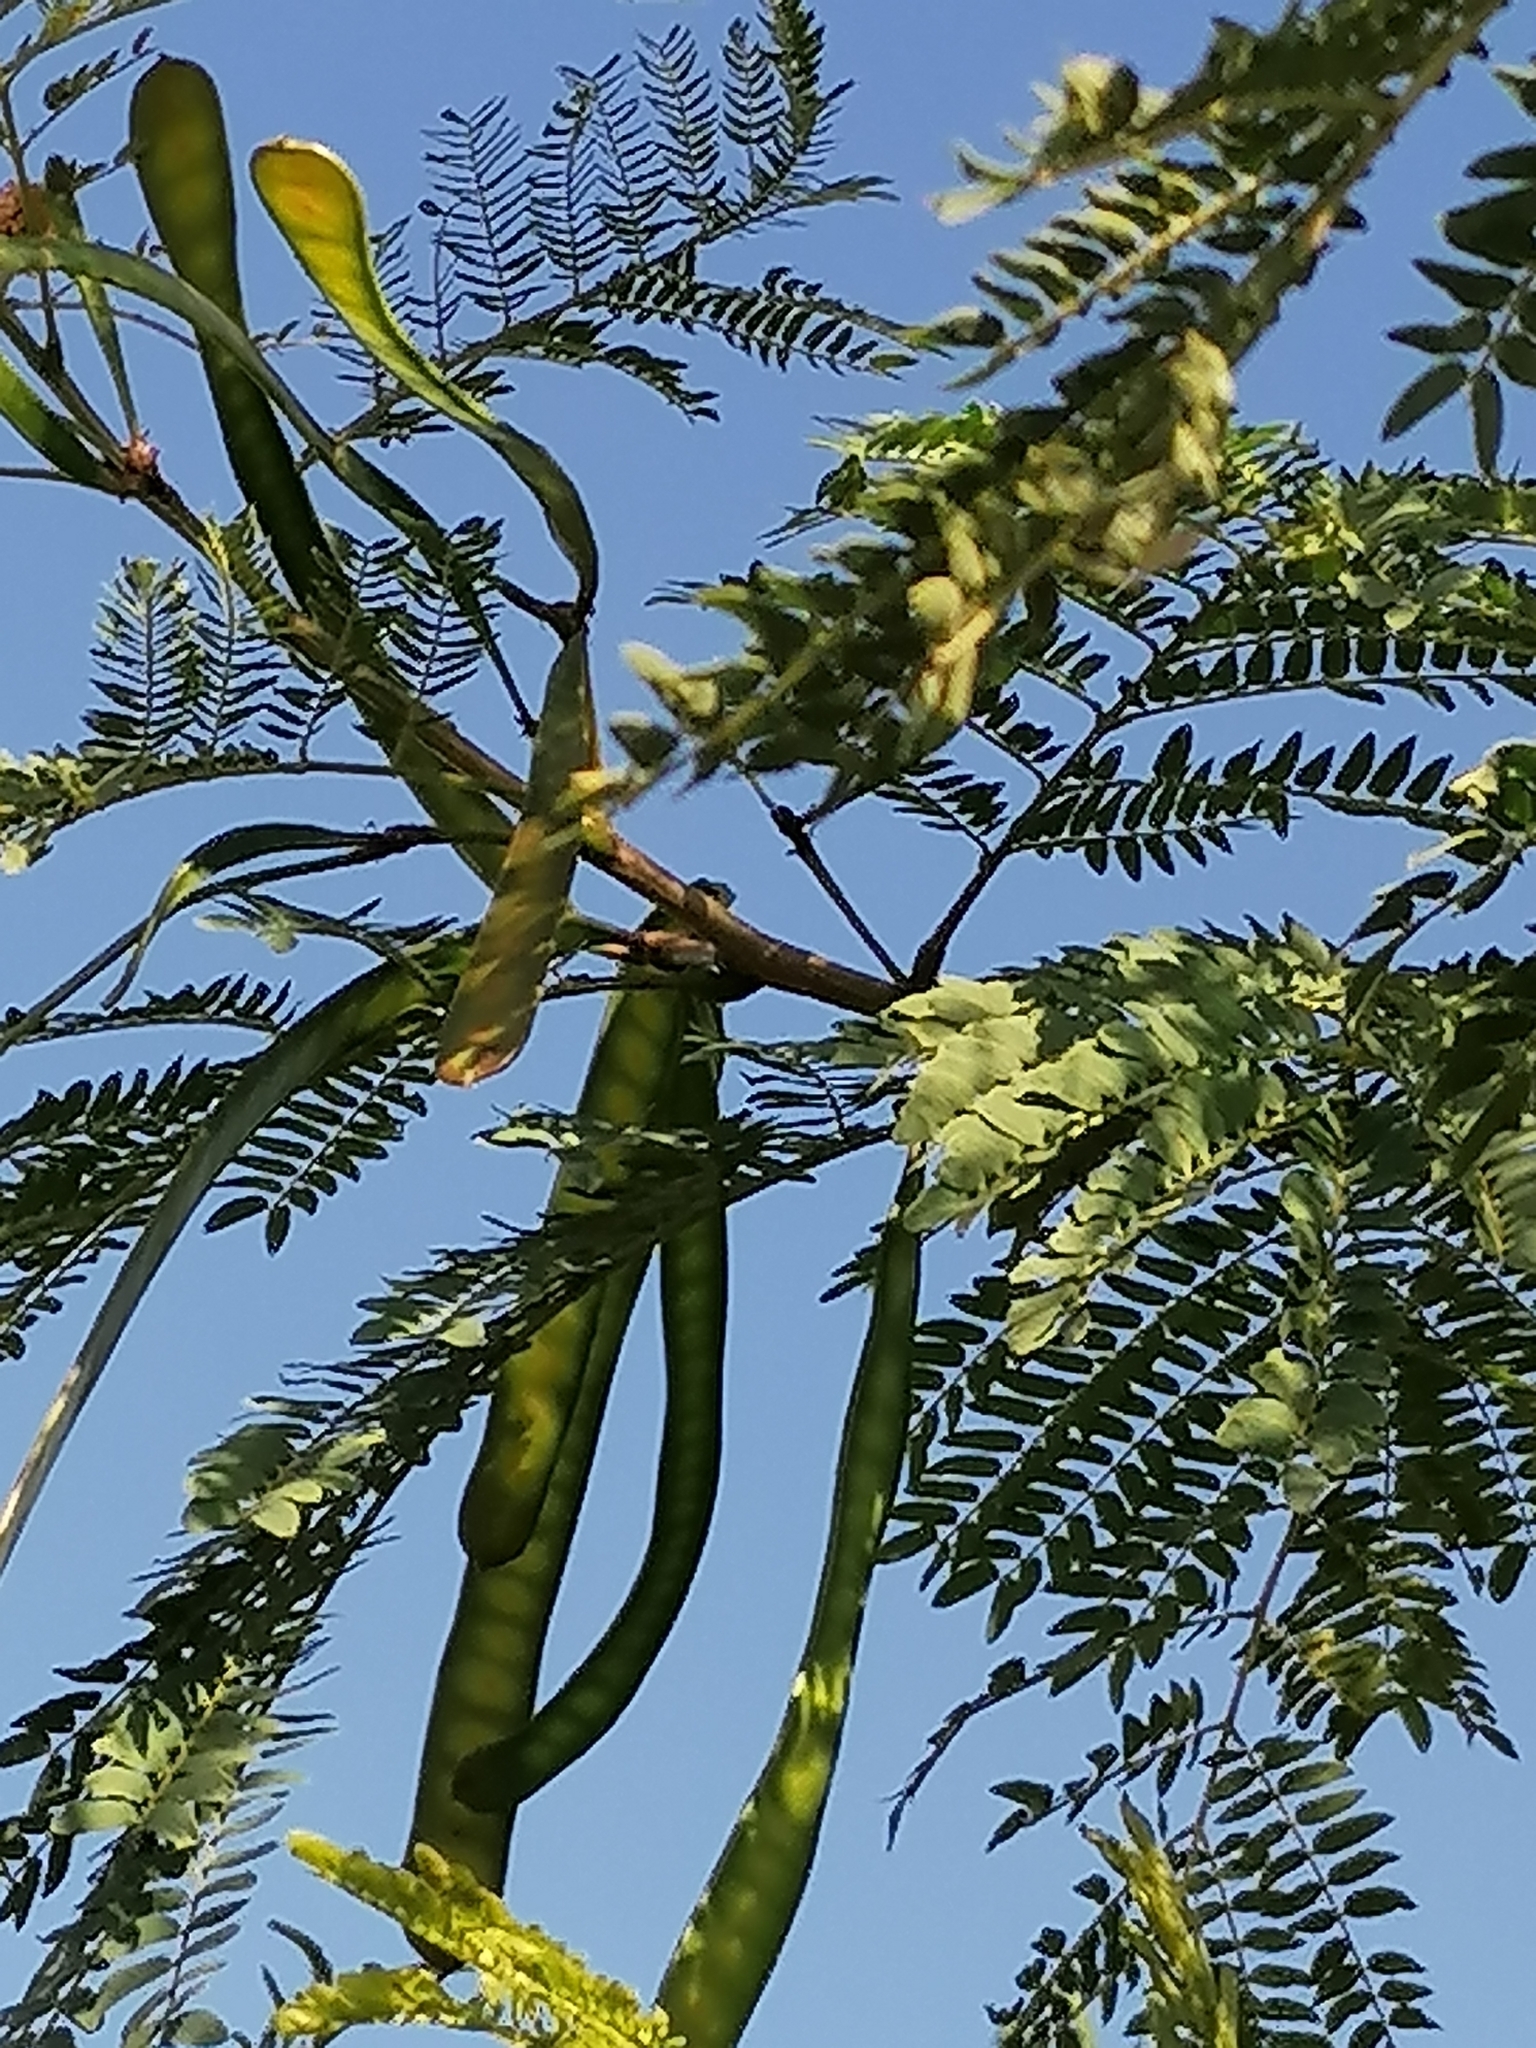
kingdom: Plantae
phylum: Tracheophyta
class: Magnoliopsida
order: Fabales
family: Fabaceae
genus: Leucaena
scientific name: Leucaena leucocephala
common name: White leadtree
